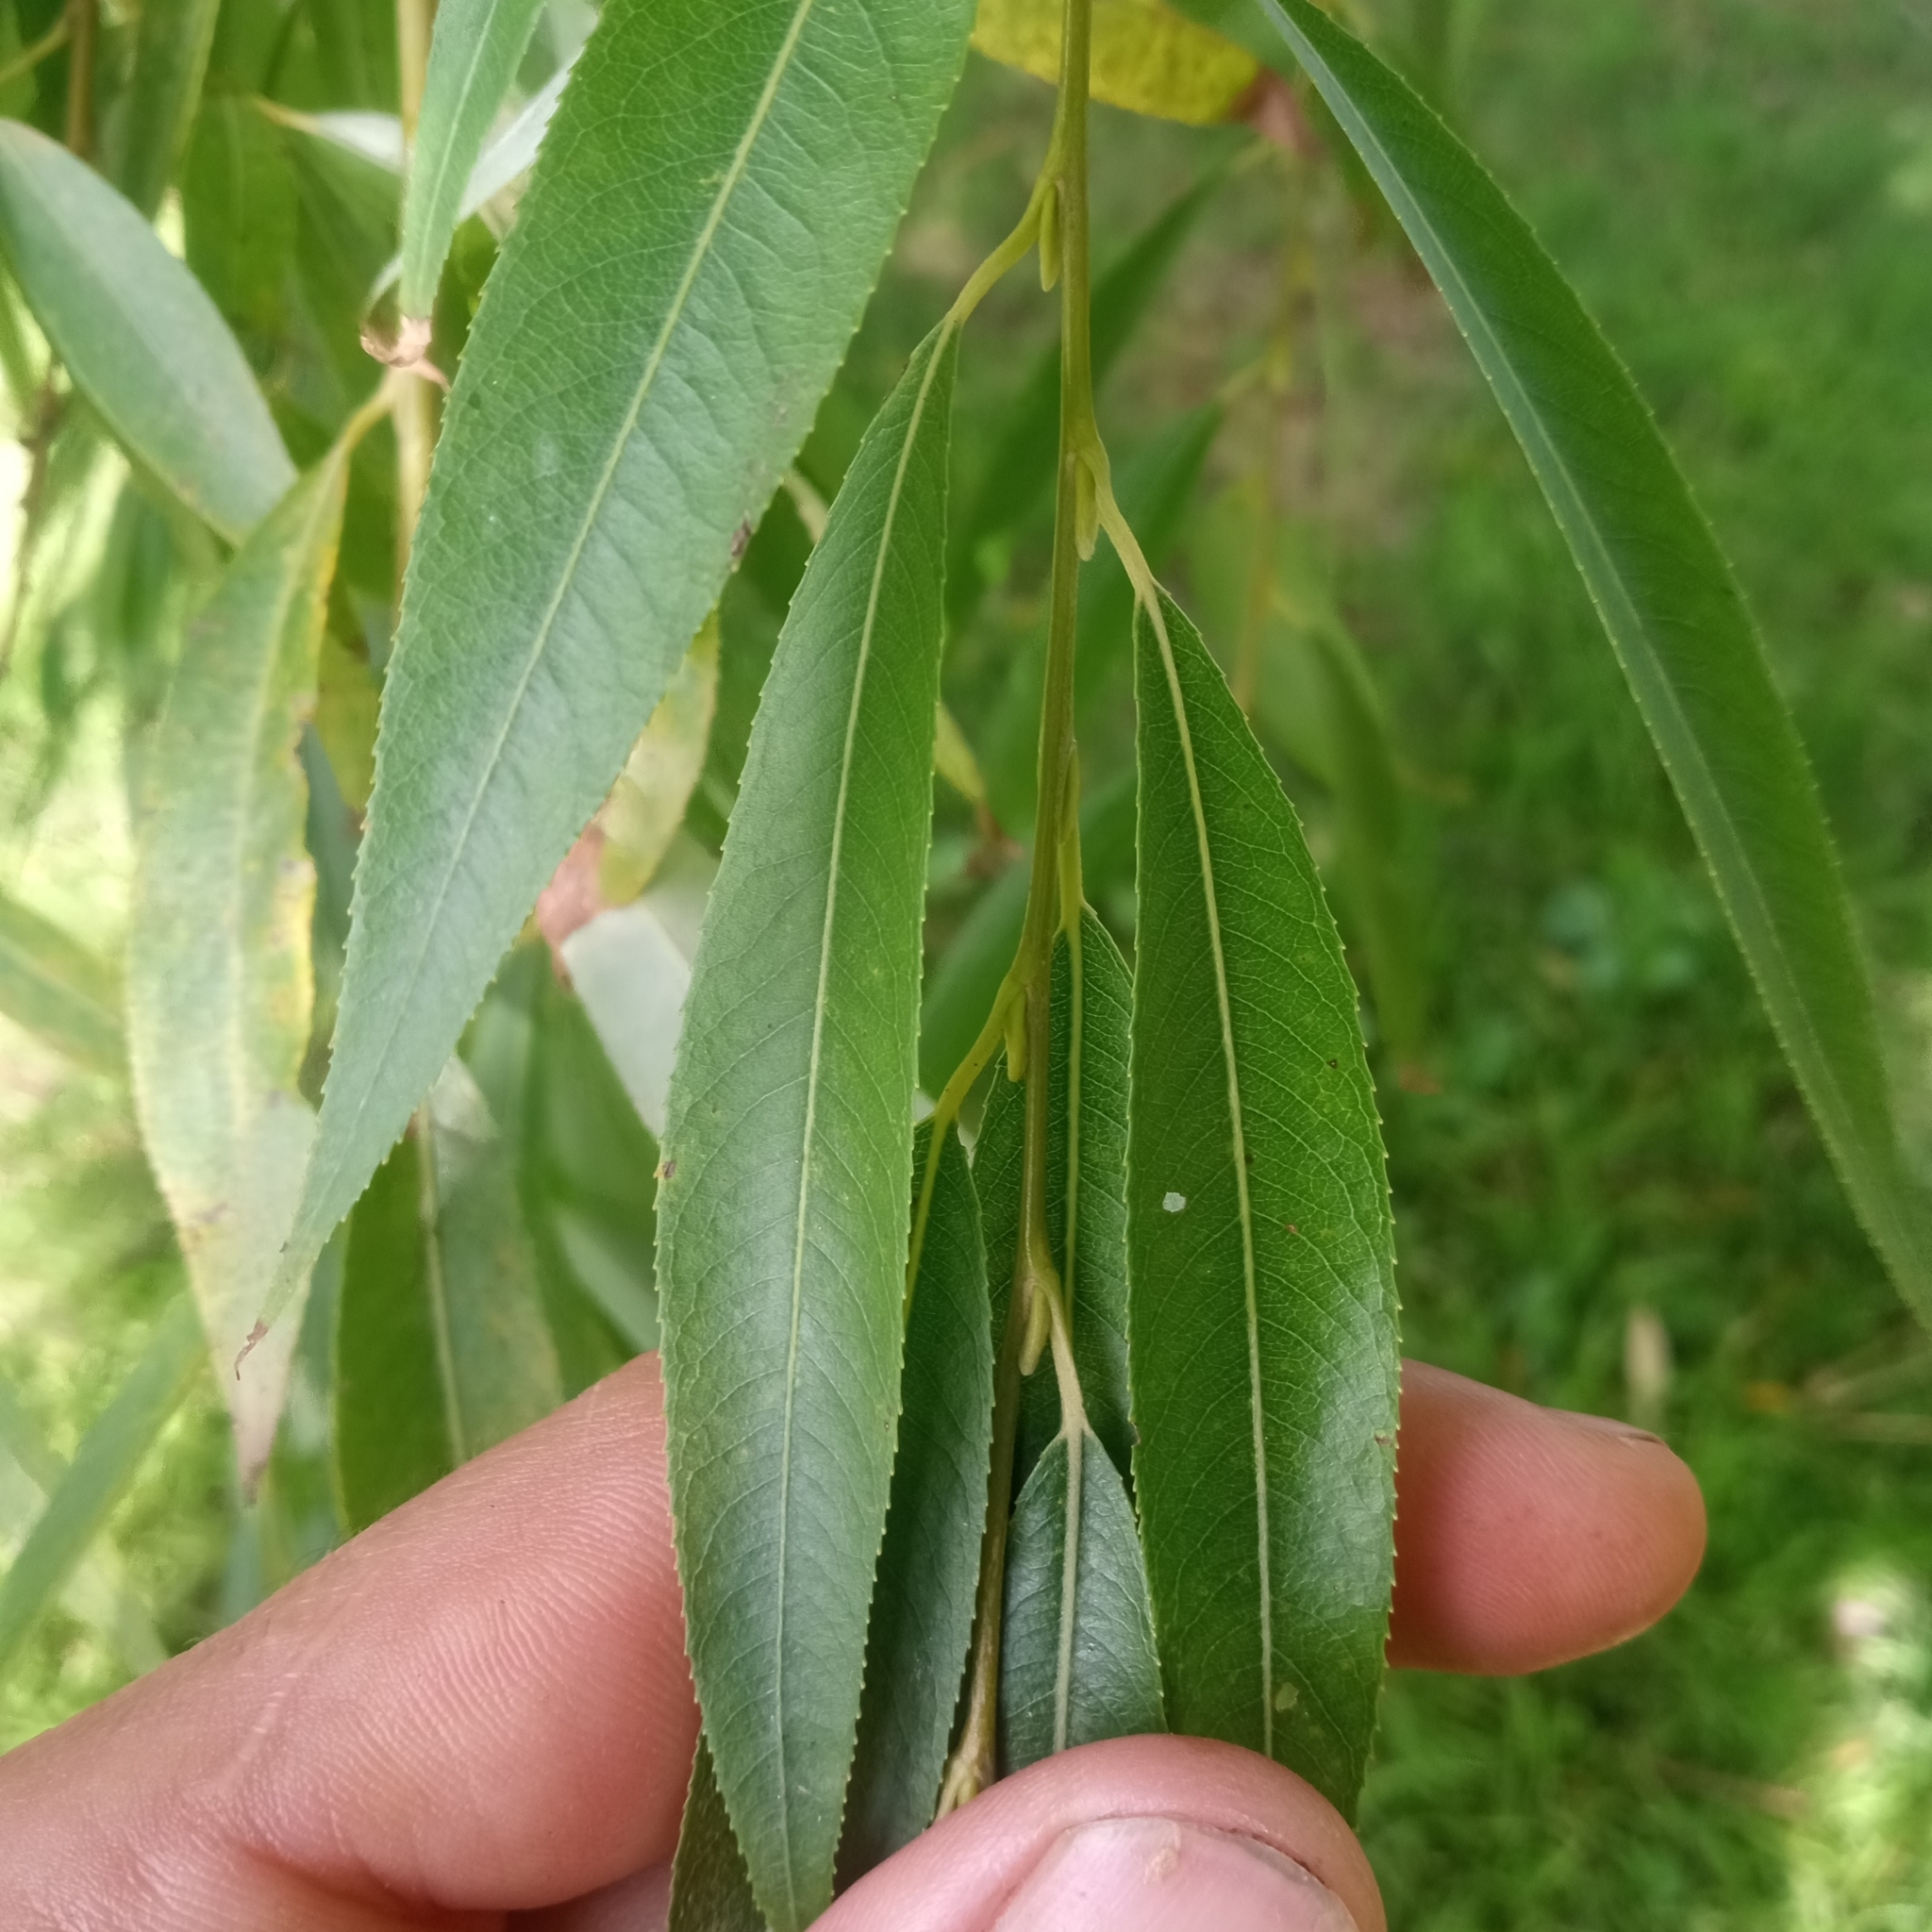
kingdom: Plantae
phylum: Tracheophyta
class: Magnoliopsida
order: Malpighiales
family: Salicaceae
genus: Salix
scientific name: Salix humboldtiana
